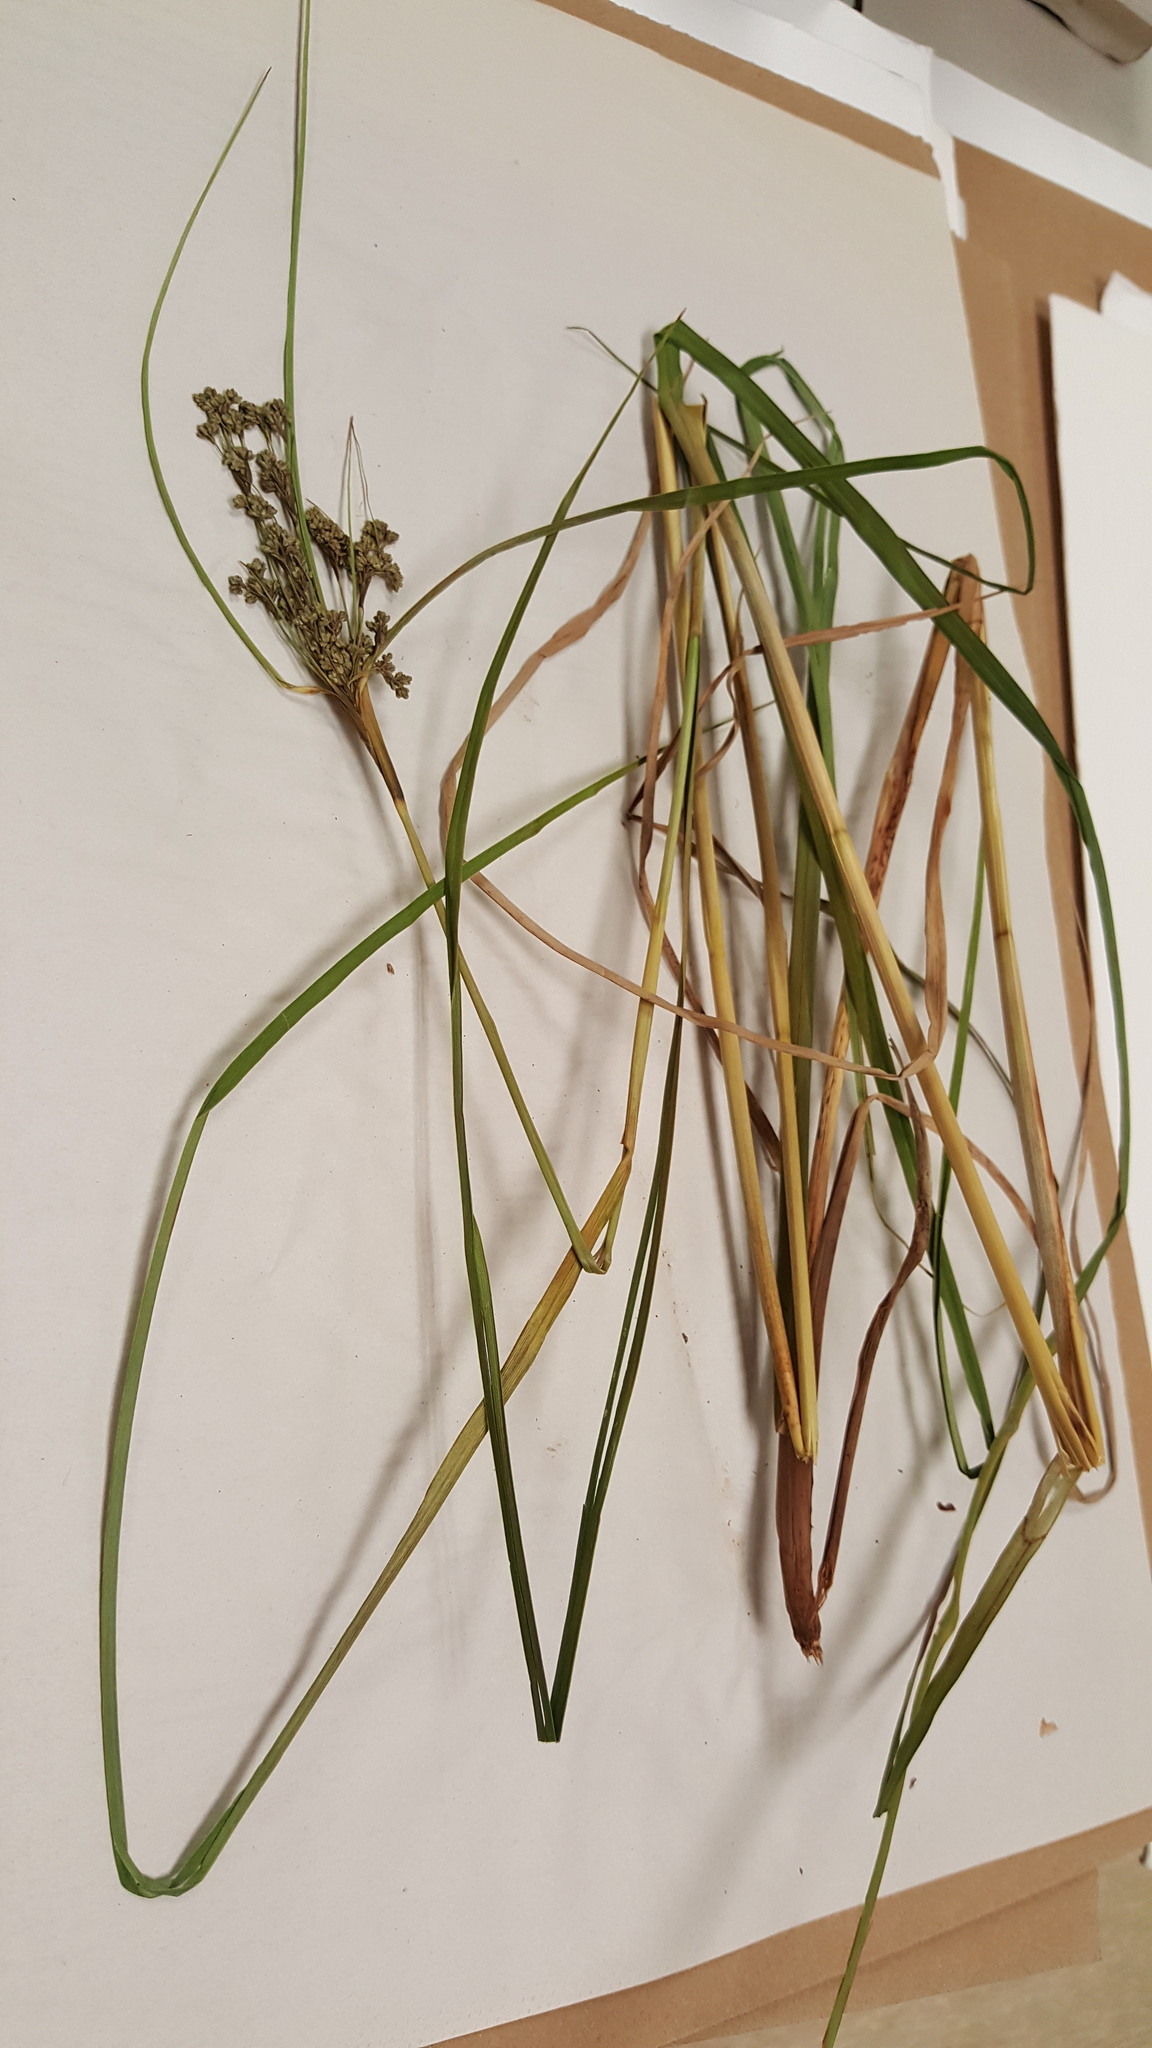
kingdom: Plantae
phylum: Tracheophyta
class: Liliopsida
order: Poales
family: Cyperaceae
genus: Scirpus
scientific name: Scirpus cyperinus
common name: Black-sheathed bulrush
